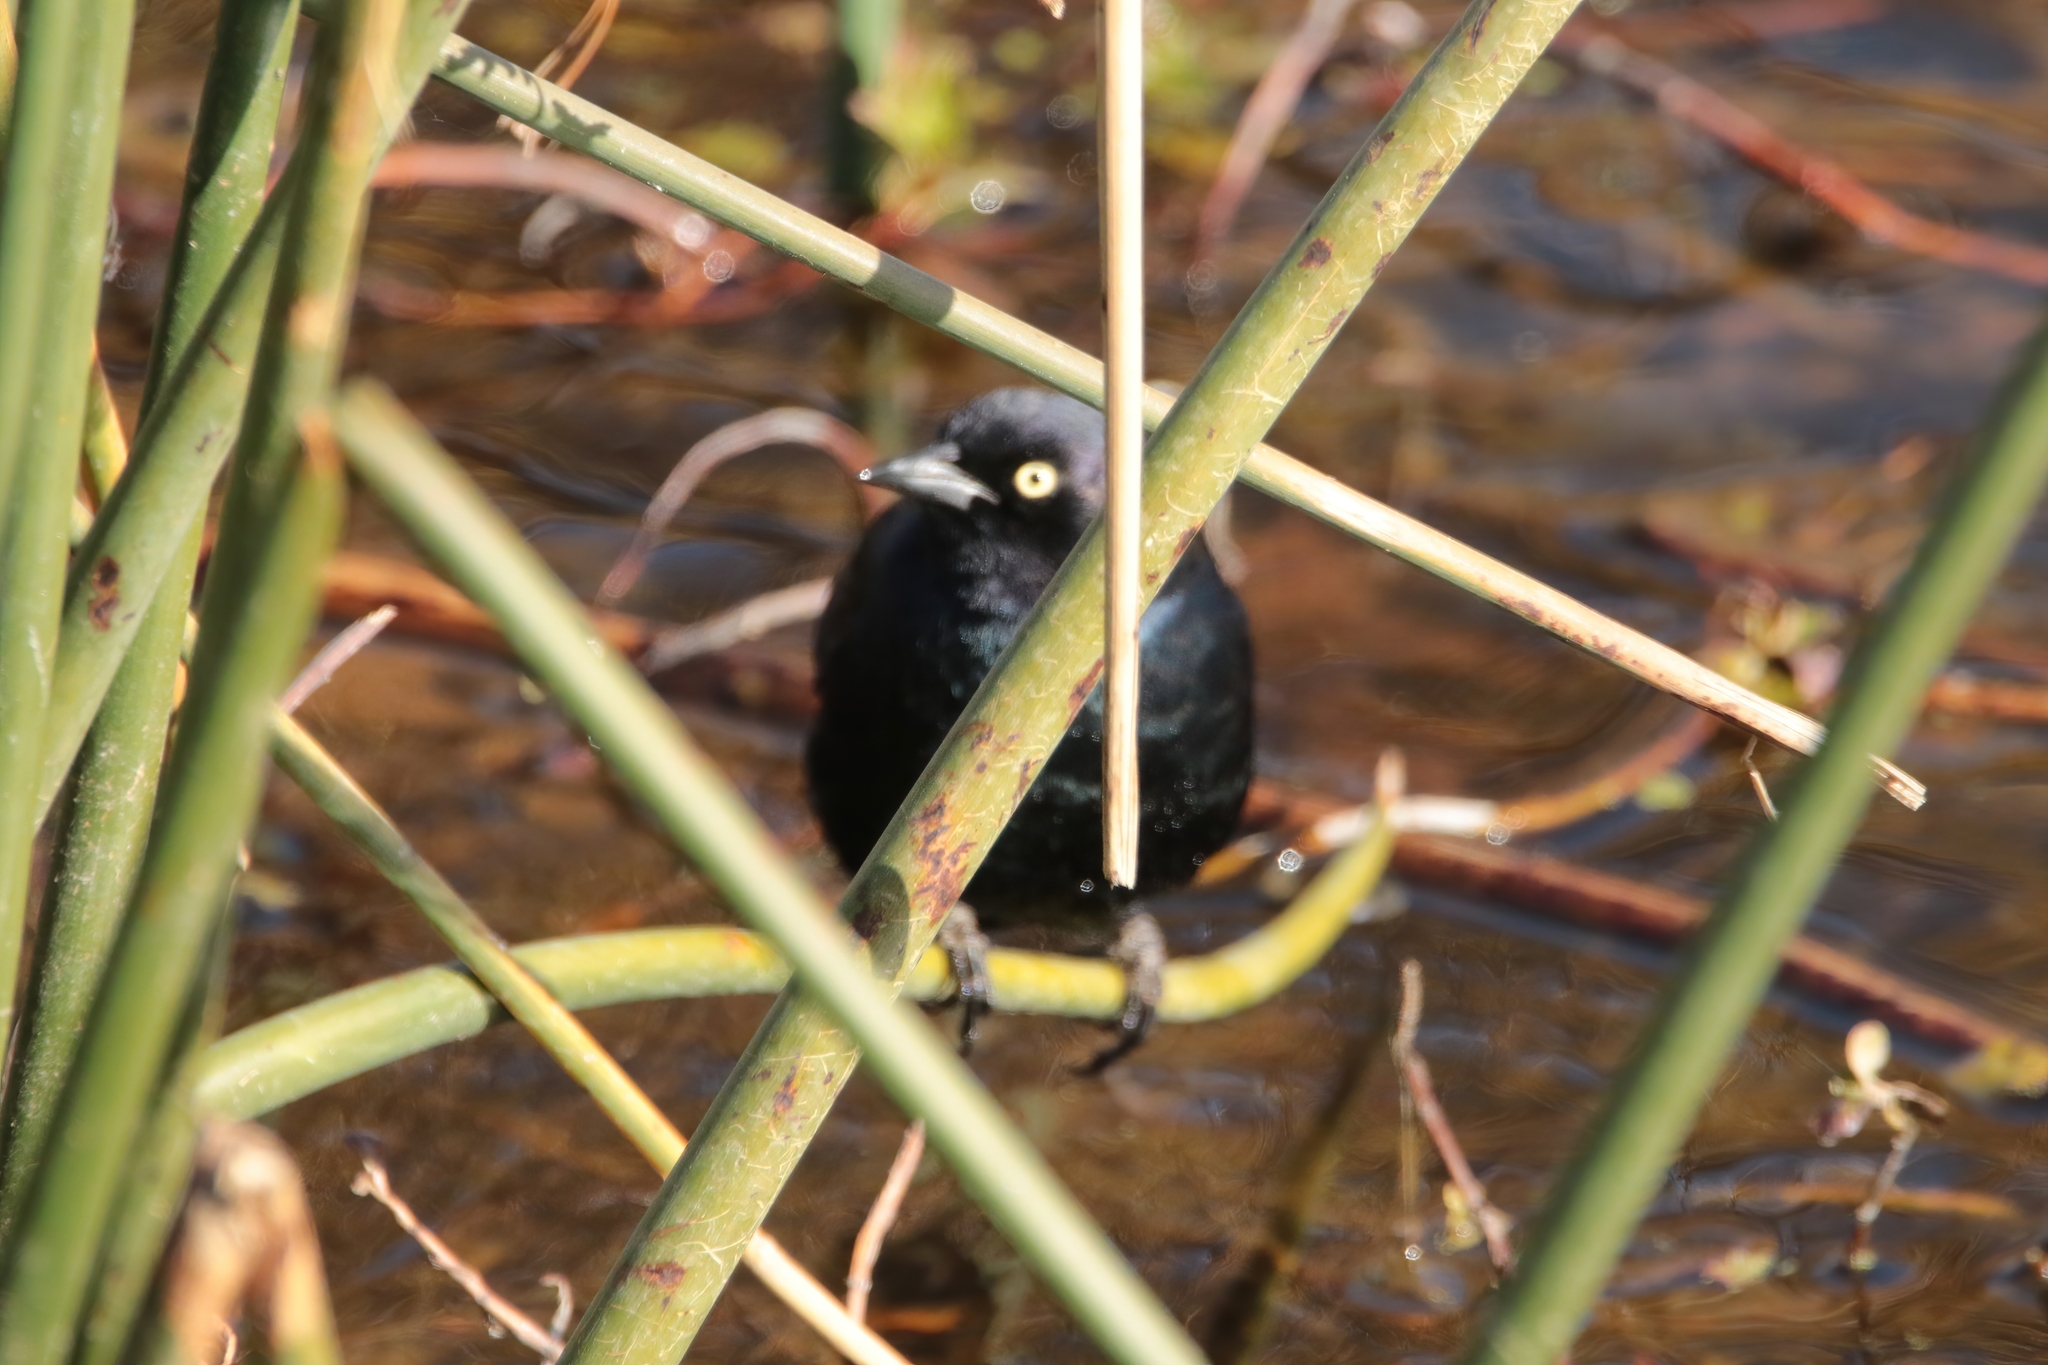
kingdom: Animalia
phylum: Chordata
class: Aves
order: Passeriformes
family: Icteridae
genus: Euphagus
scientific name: Euphagus cyanocephalus
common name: Brewer's blackbird
